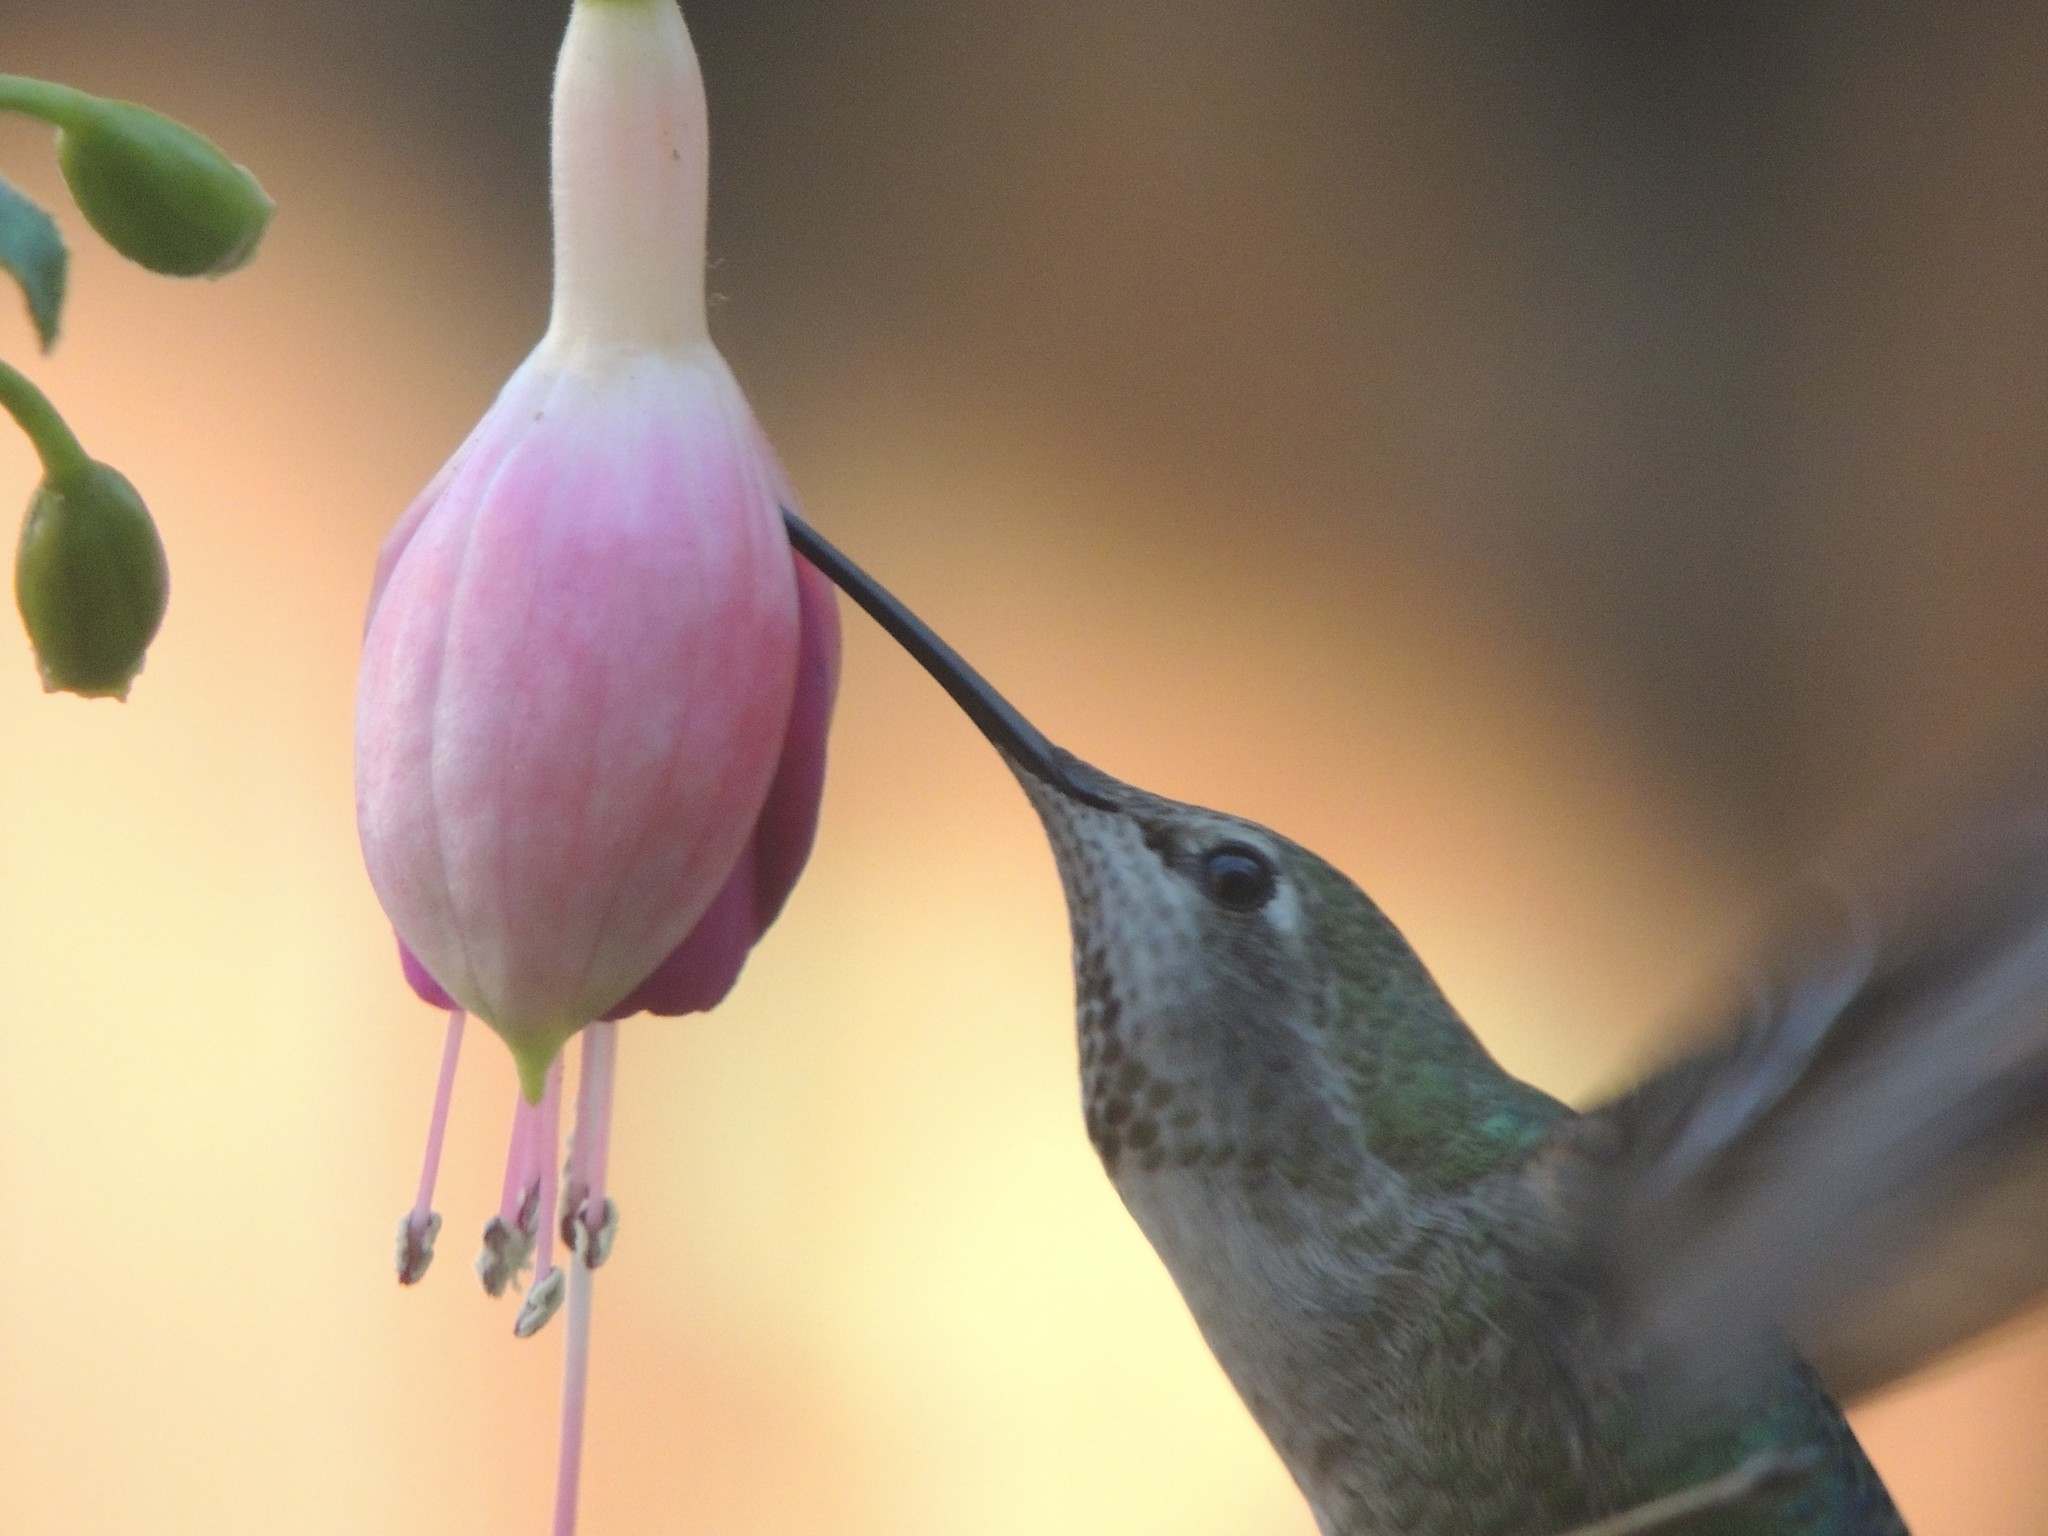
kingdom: Animalia
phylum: Chordata
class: Aves
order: Apodiformes
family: Trochilidae
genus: Calypte
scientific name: Calypte anna
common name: Anna's hummingbird
